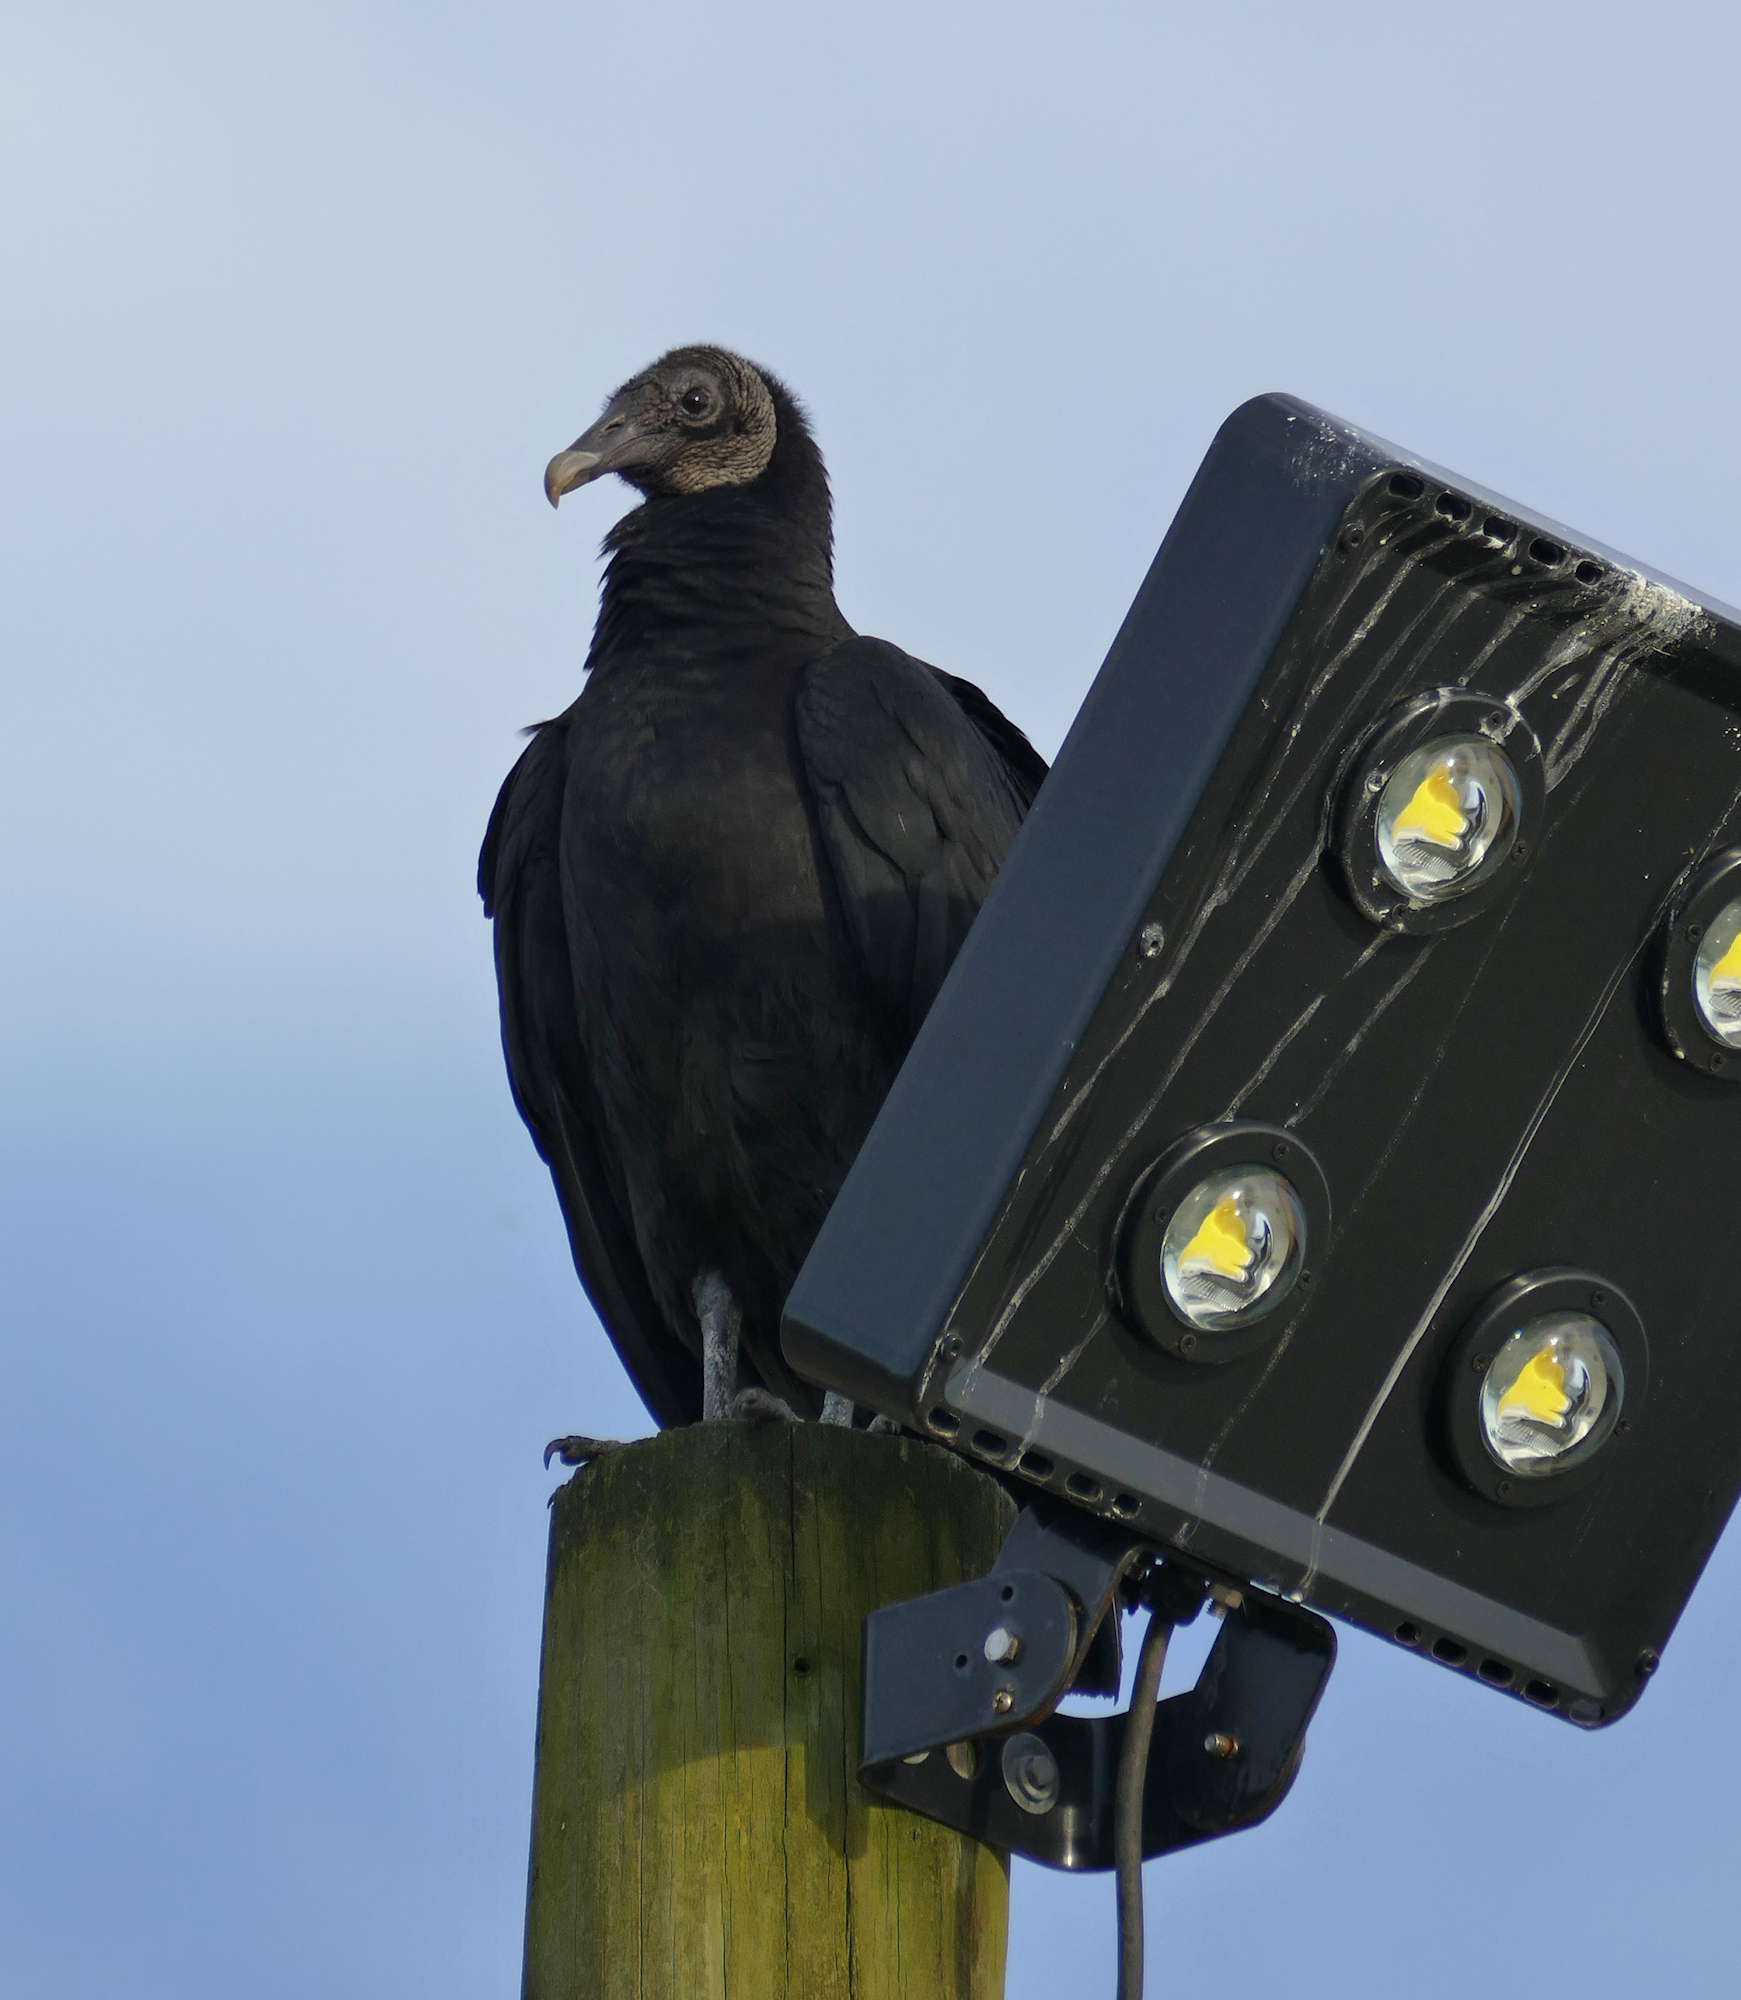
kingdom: Animalia
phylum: Chordata
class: Aves
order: Accipitriformes
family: Cathartidae
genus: Coragyps
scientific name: Coragyps atratus
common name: Black vulture
